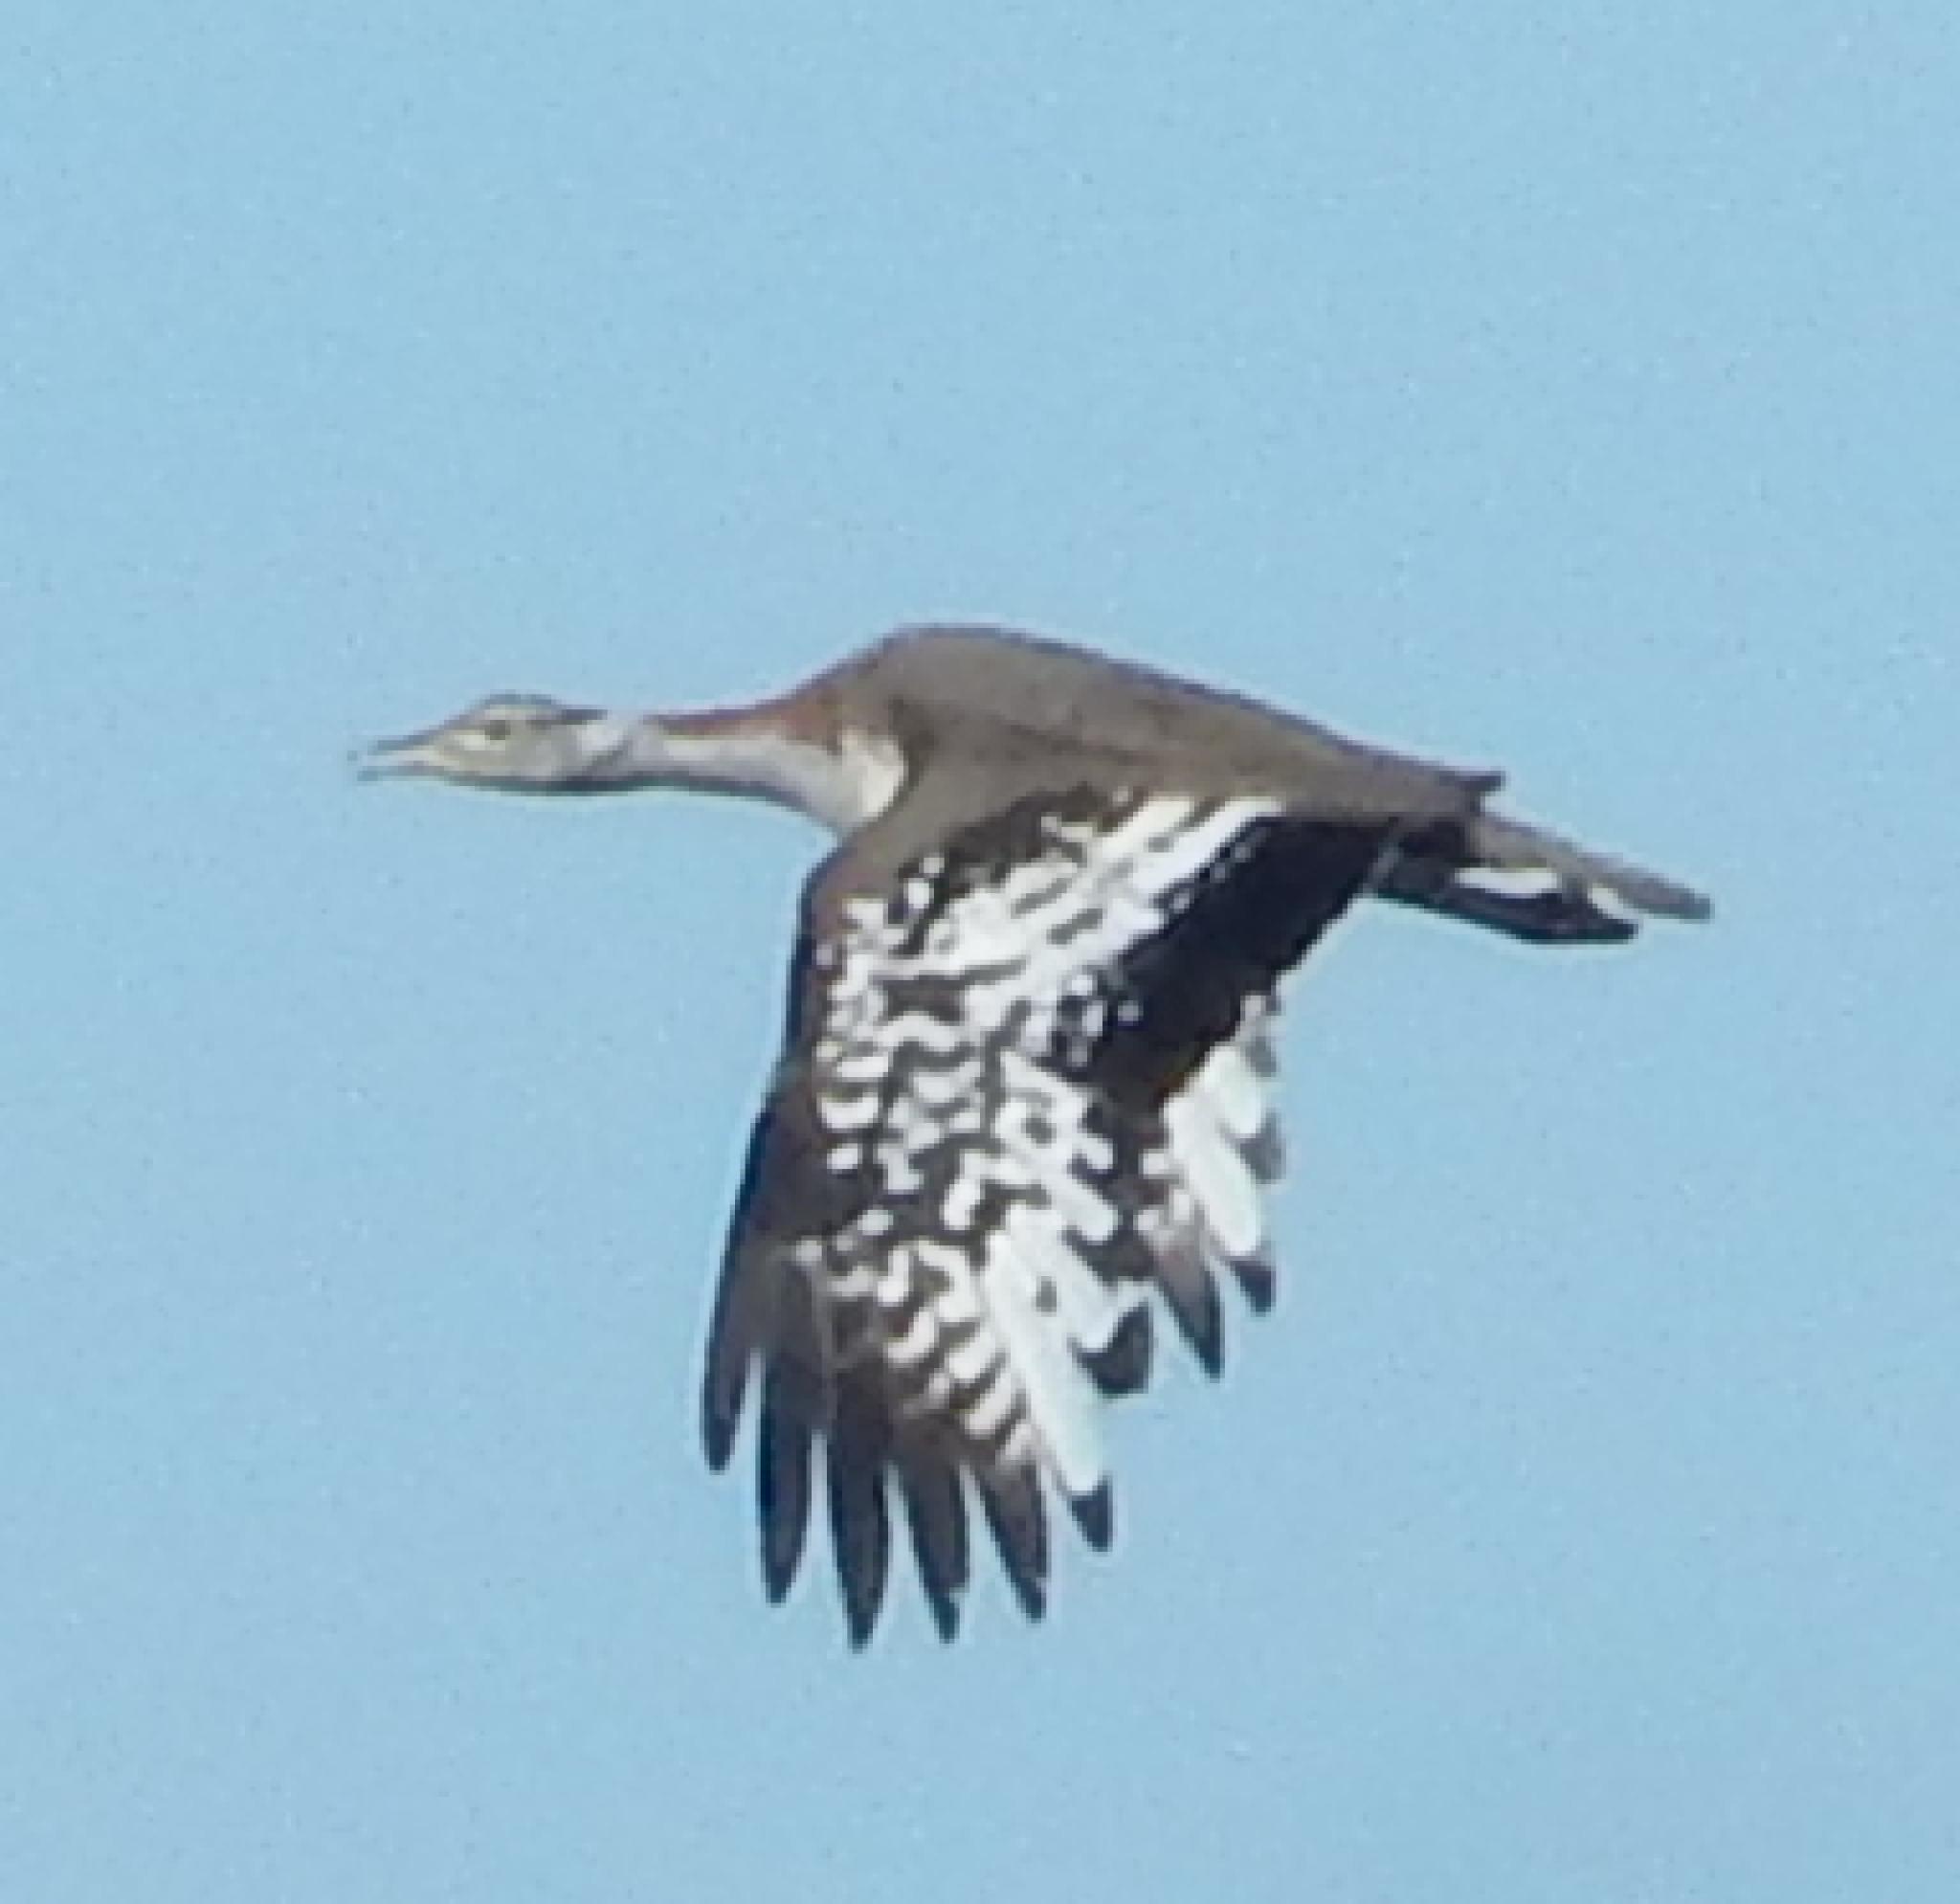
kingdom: Animalia
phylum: Chordata
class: Aves
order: Otidiformes
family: Otididae
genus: Neotis
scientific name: Neotis denhami
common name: Denham's bustard
